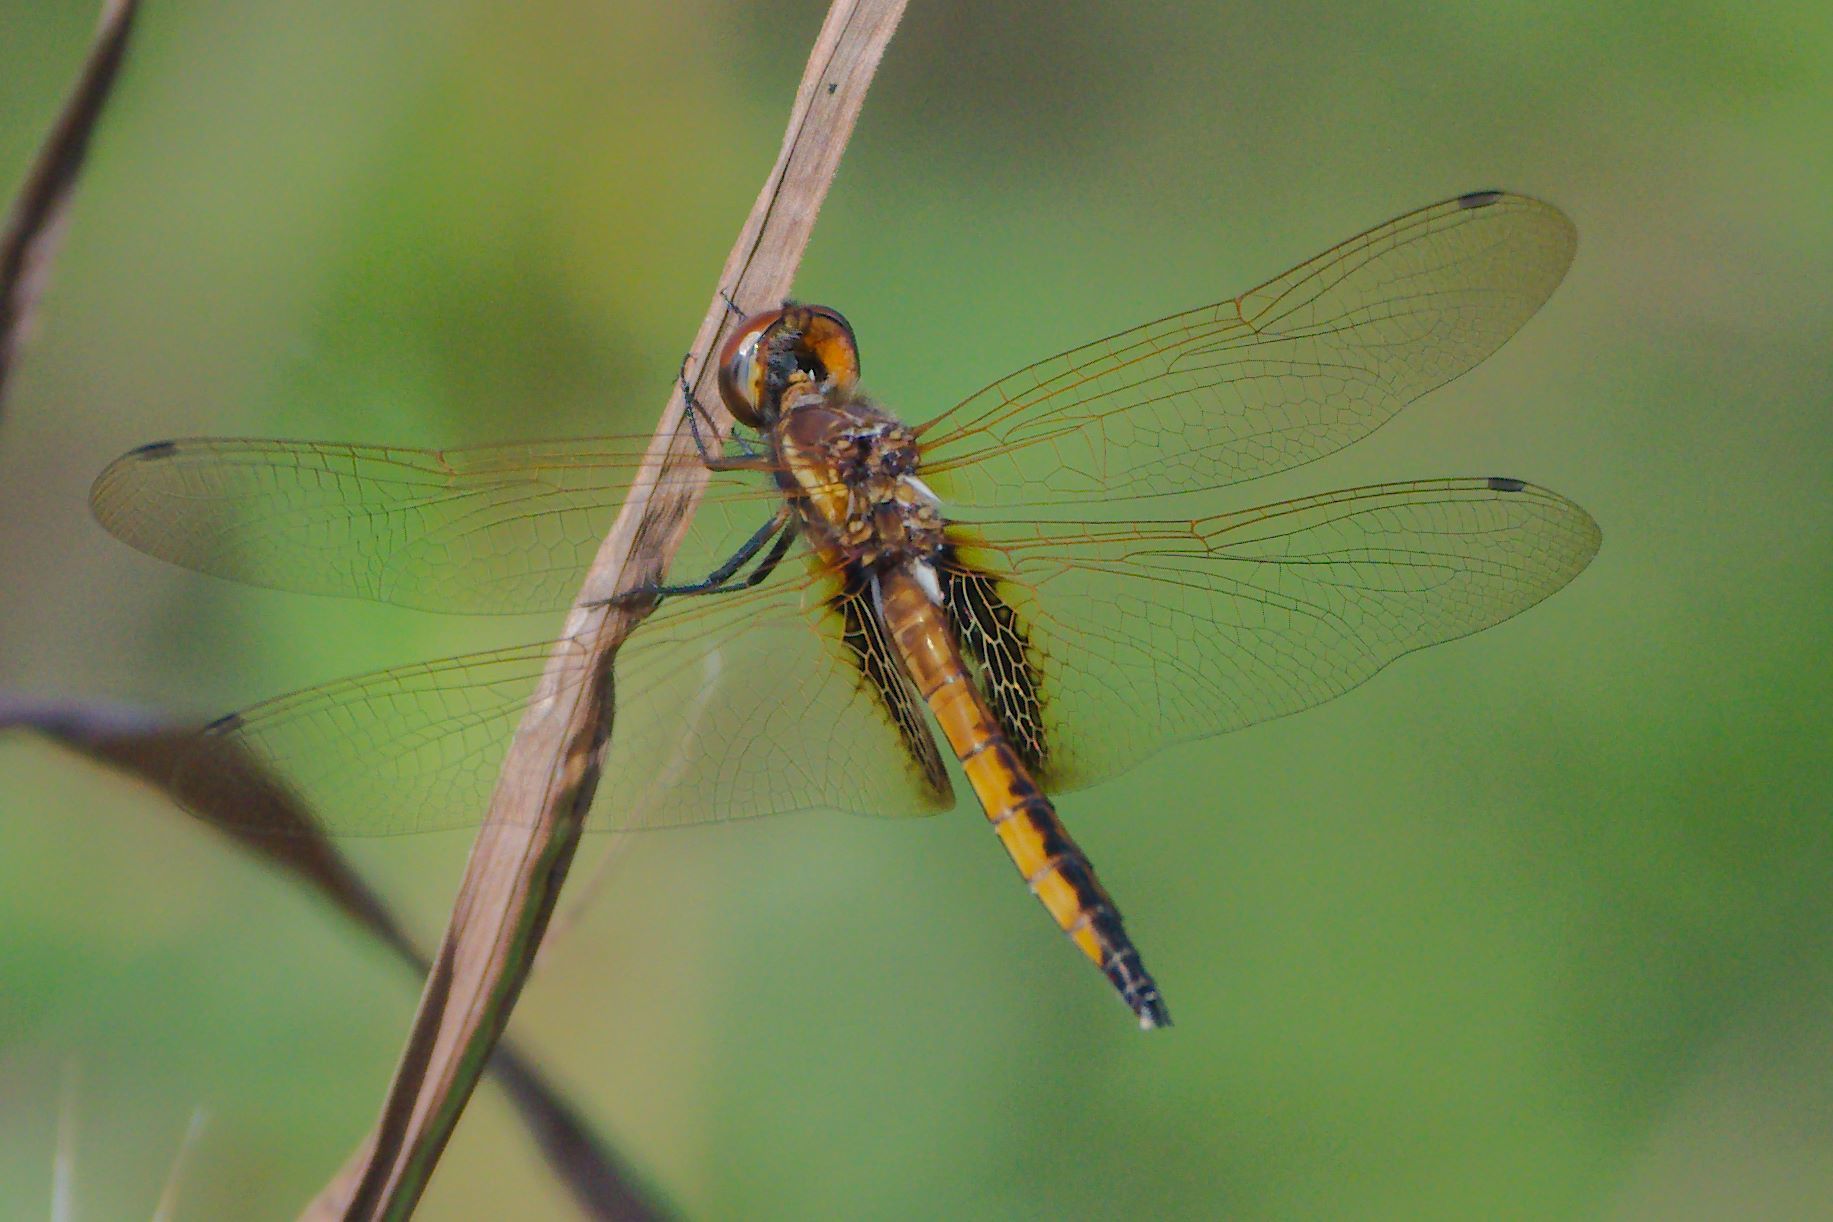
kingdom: Animalia
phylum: Arthropoda
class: Insecta
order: Odonata
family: Libellulidae
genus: Miathyria
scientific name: Miathyria marcella
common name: Hyacinth glider
